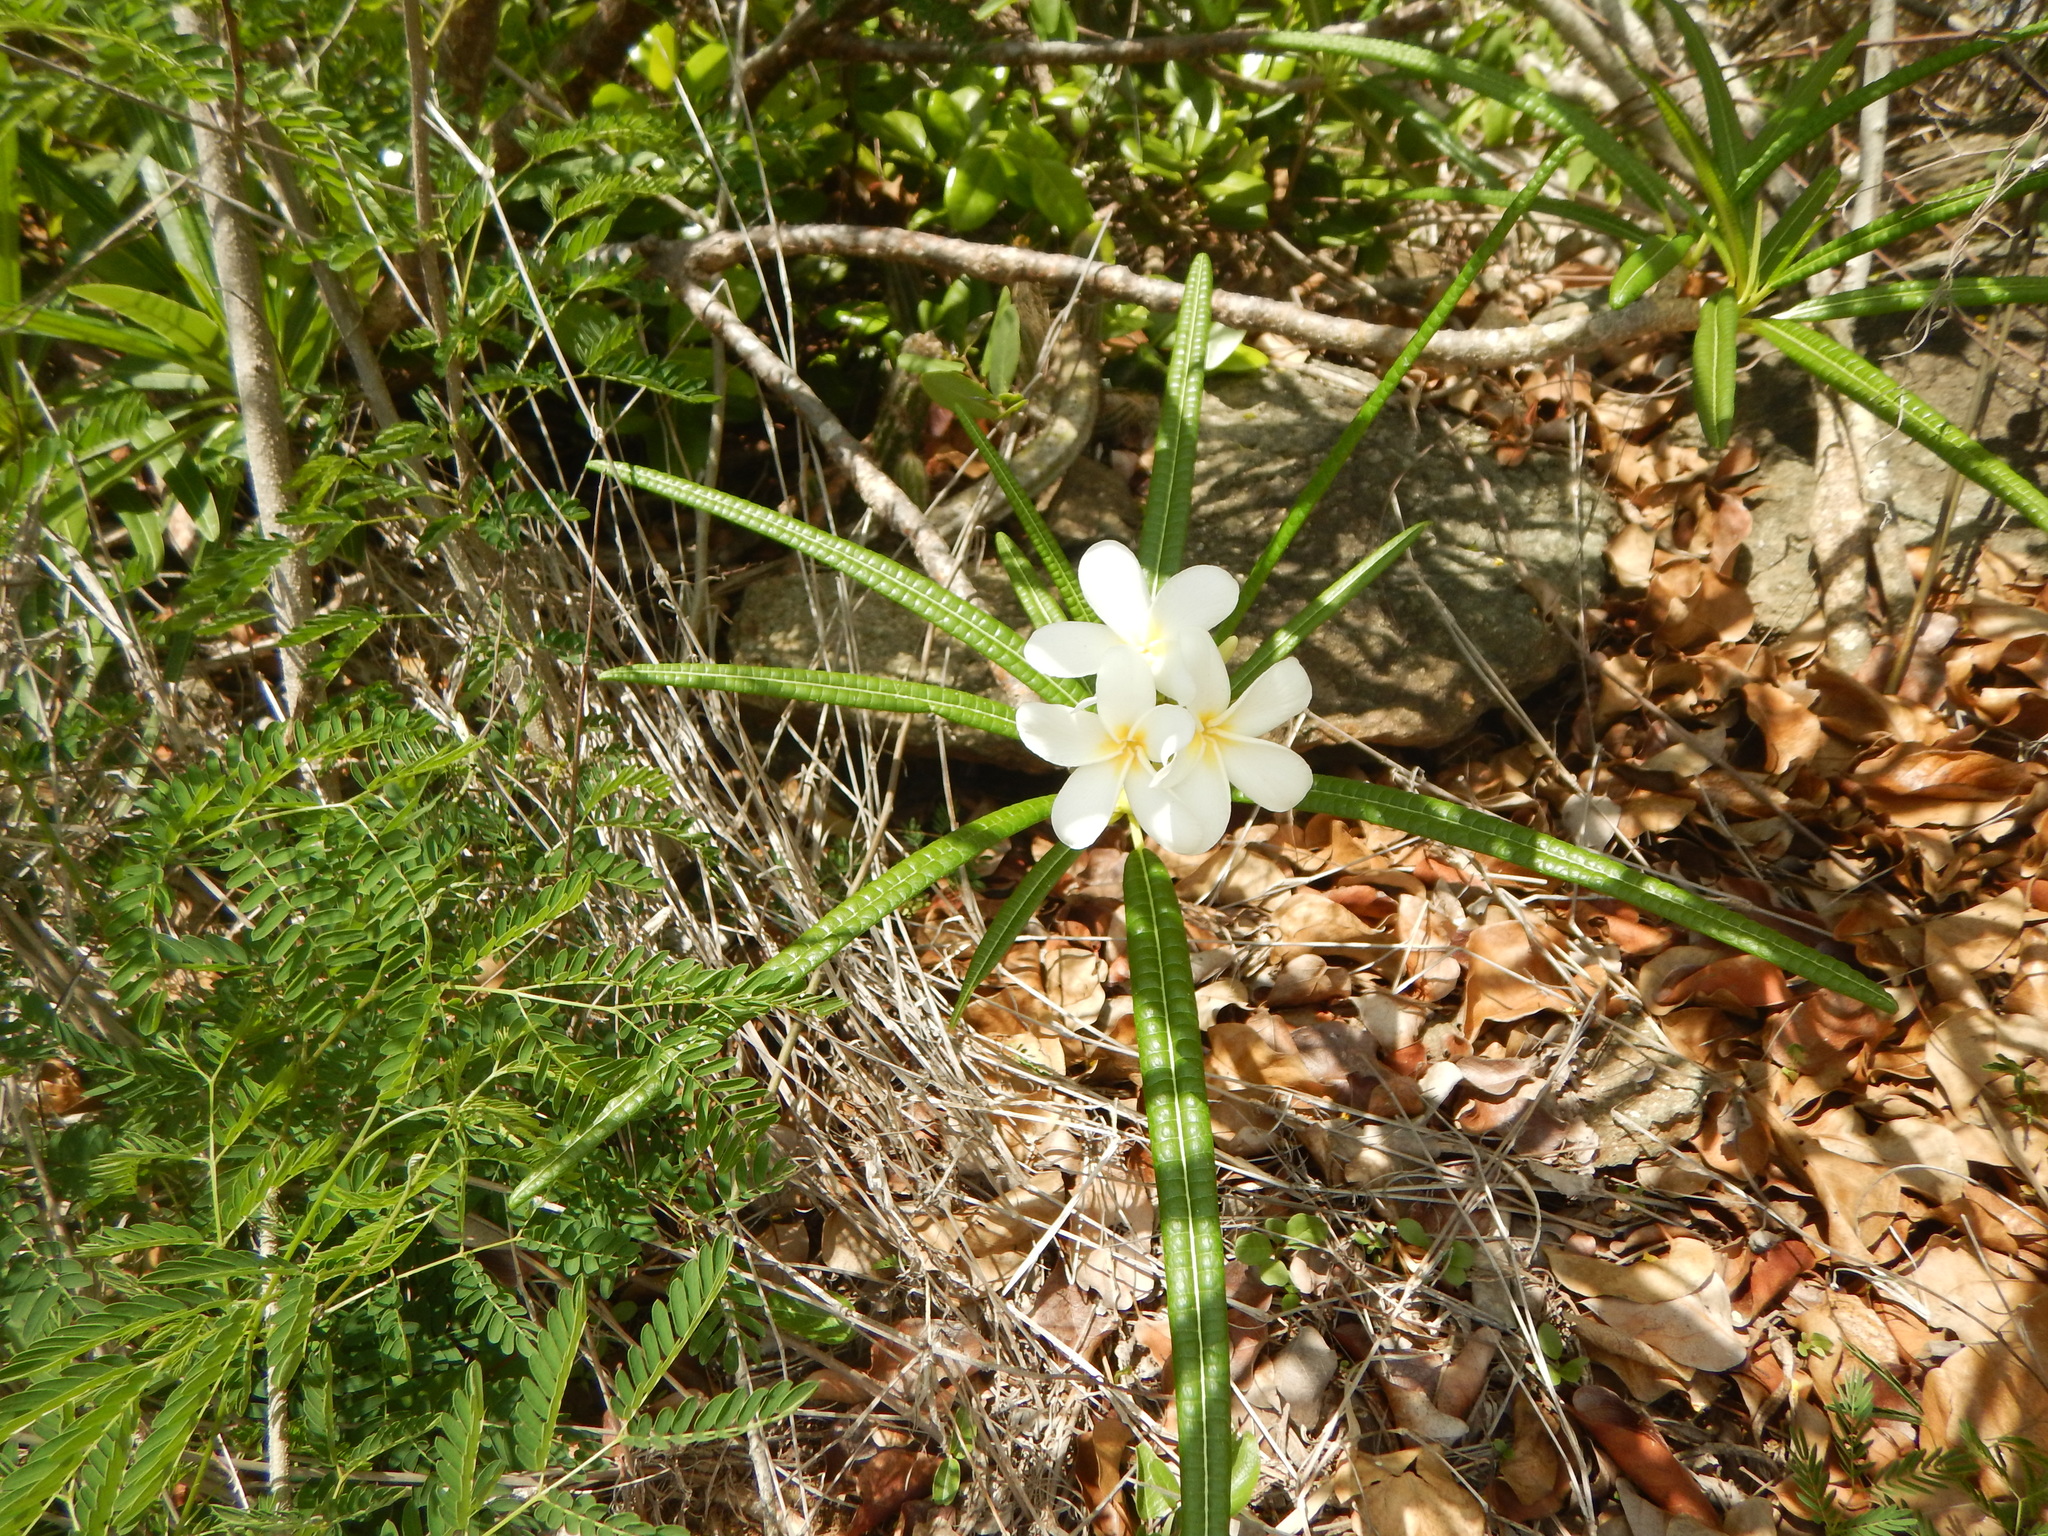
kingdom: Plantae
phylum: Tracheophyta
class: Magnoliopsida
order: Gentianales
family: Apocynaceae
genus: Plumeria
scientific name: Plumeria alba
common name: Wild frangipani
